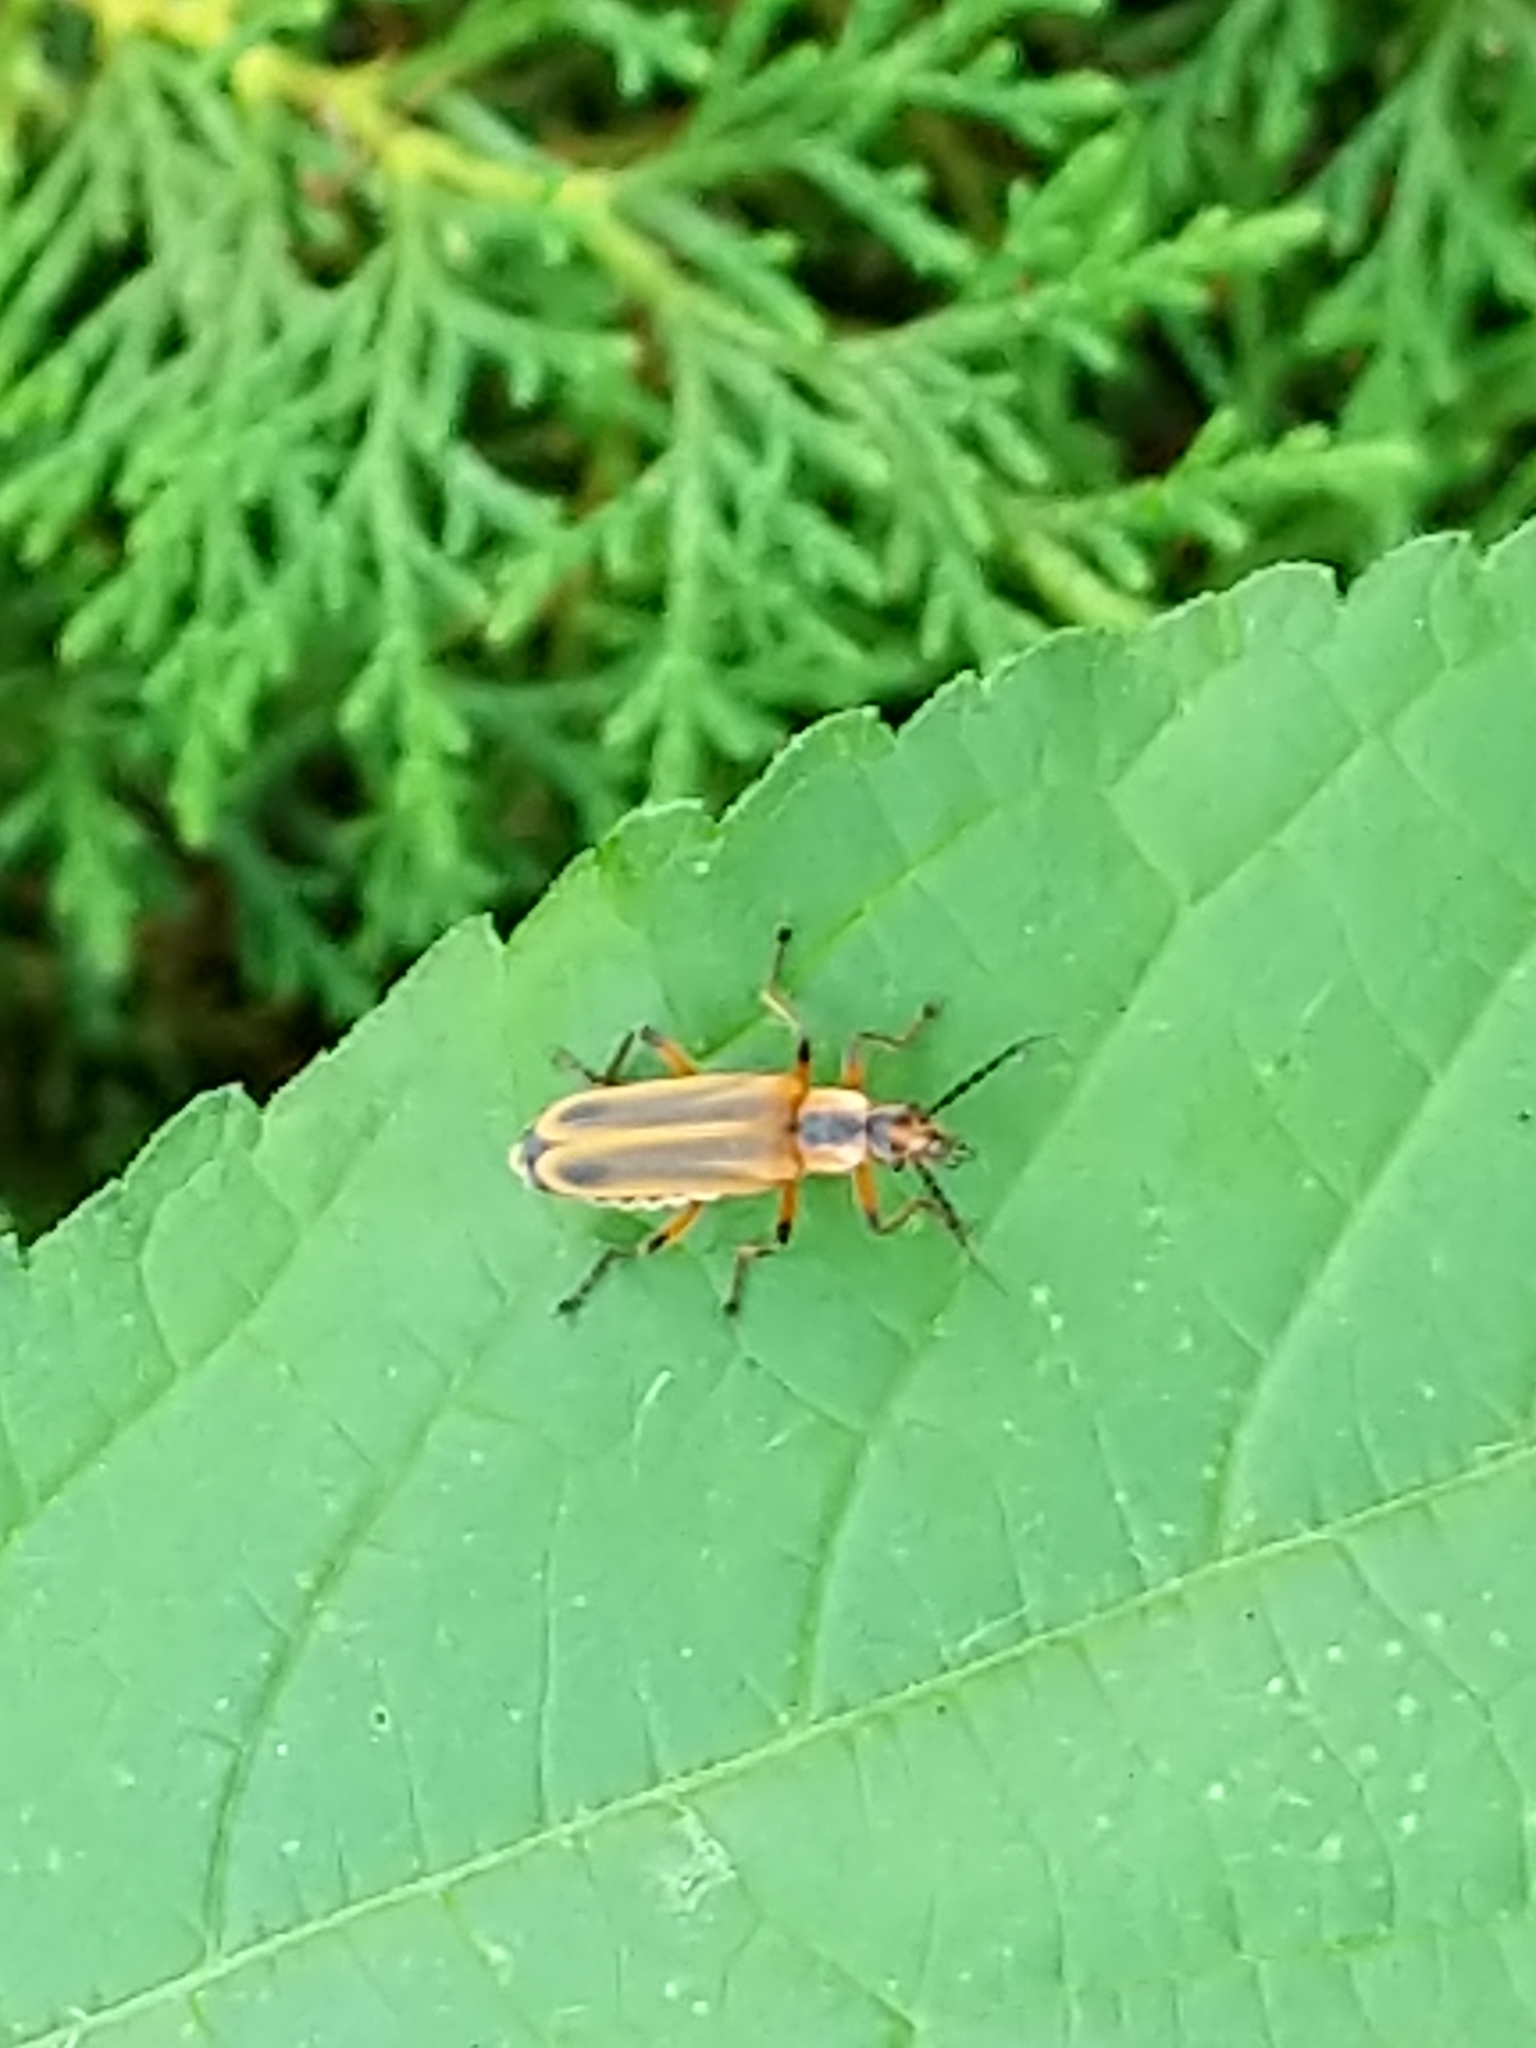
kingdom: Animalia
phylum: Arthropoda
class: Insecta
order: Coleoptera
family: Cantharidae
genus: Chauliognathus
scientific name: Chauliognathus marginatus
